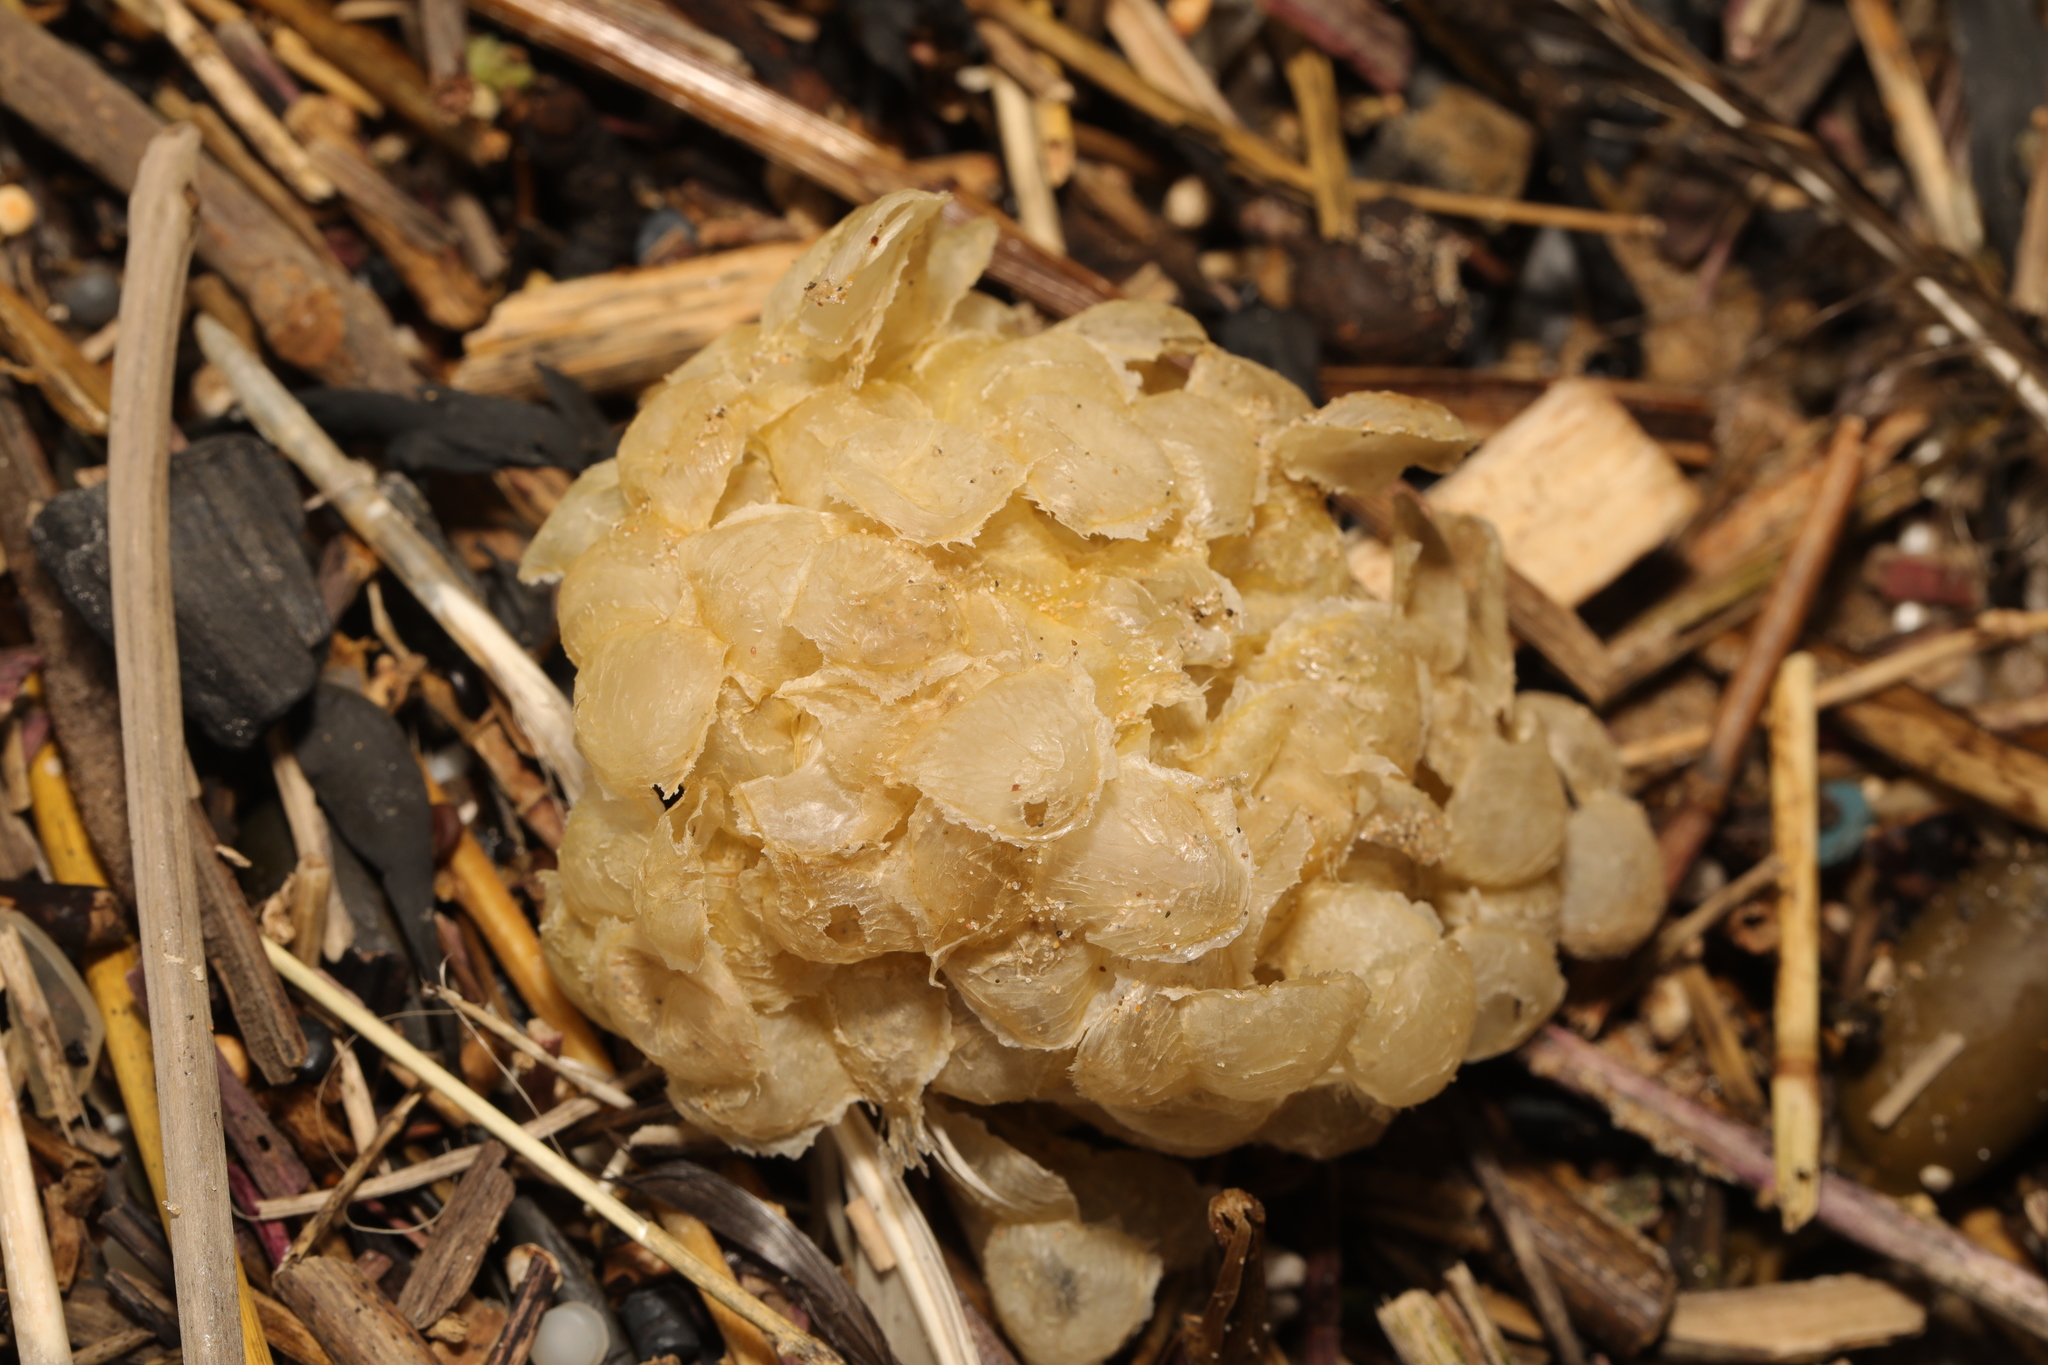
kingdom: Animalia
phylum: Mollusca
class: Gastropoda
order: Neogastropoda
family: Buccinidae
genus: Buccinum
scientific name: Buccinum undatum
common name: Common whelk
